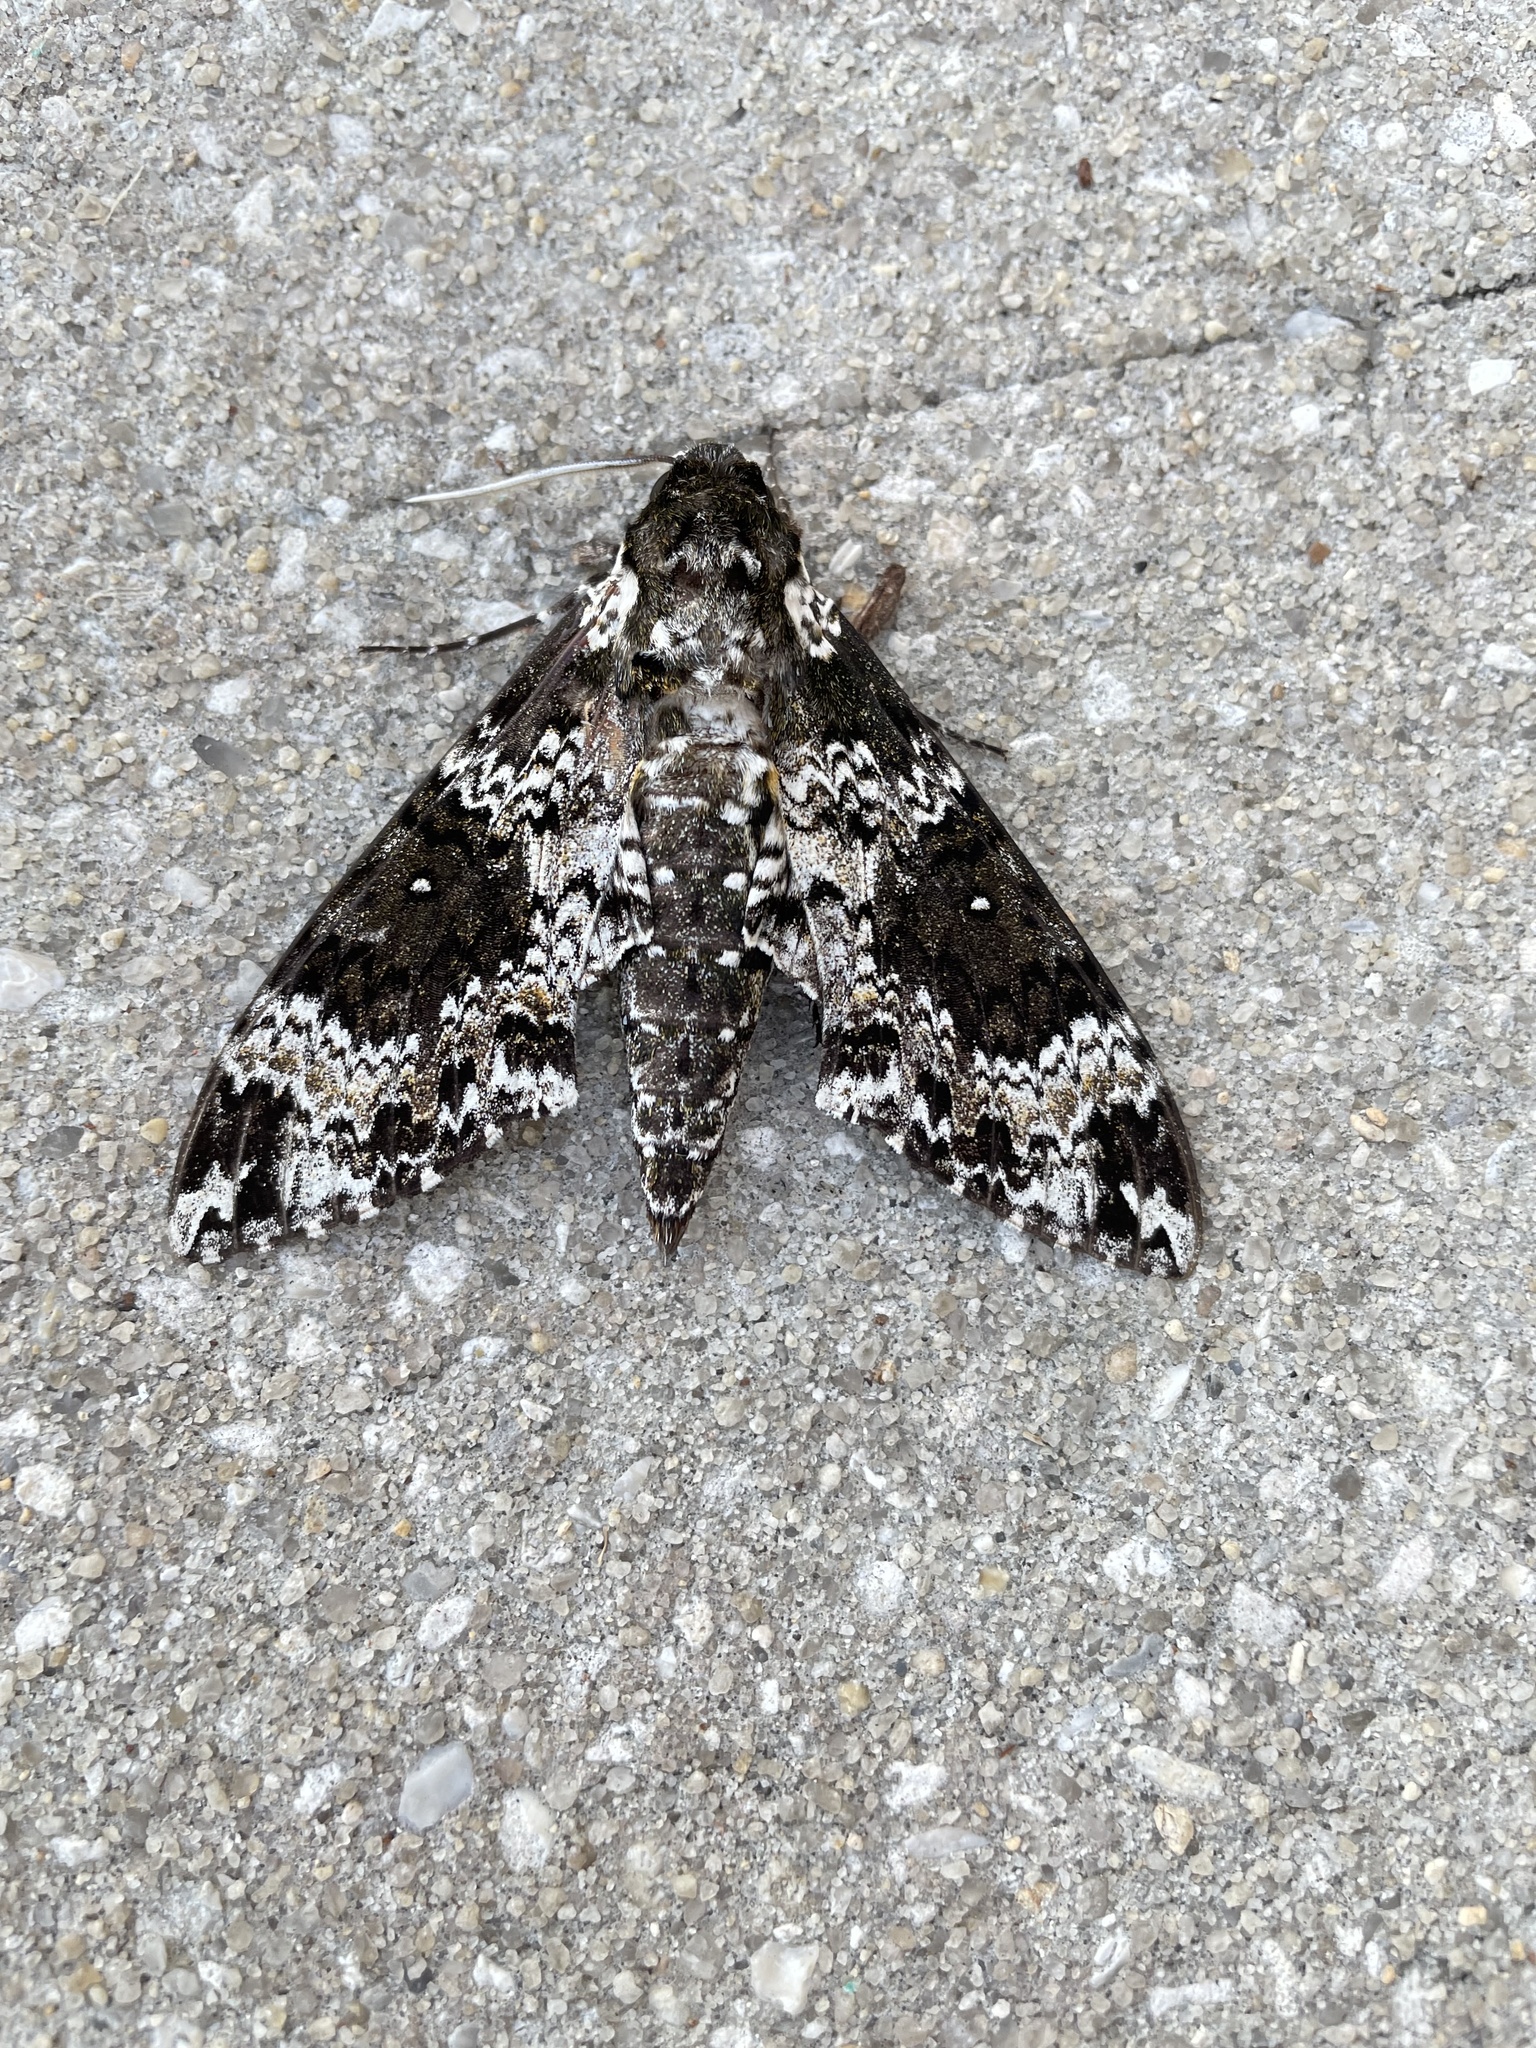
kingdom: Animalia
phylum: Arthropoda
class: Insecta
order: Lepidoptera
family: Sphingidae
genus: Manduca
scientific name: Manduca rustica
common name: Rustic sphinx
